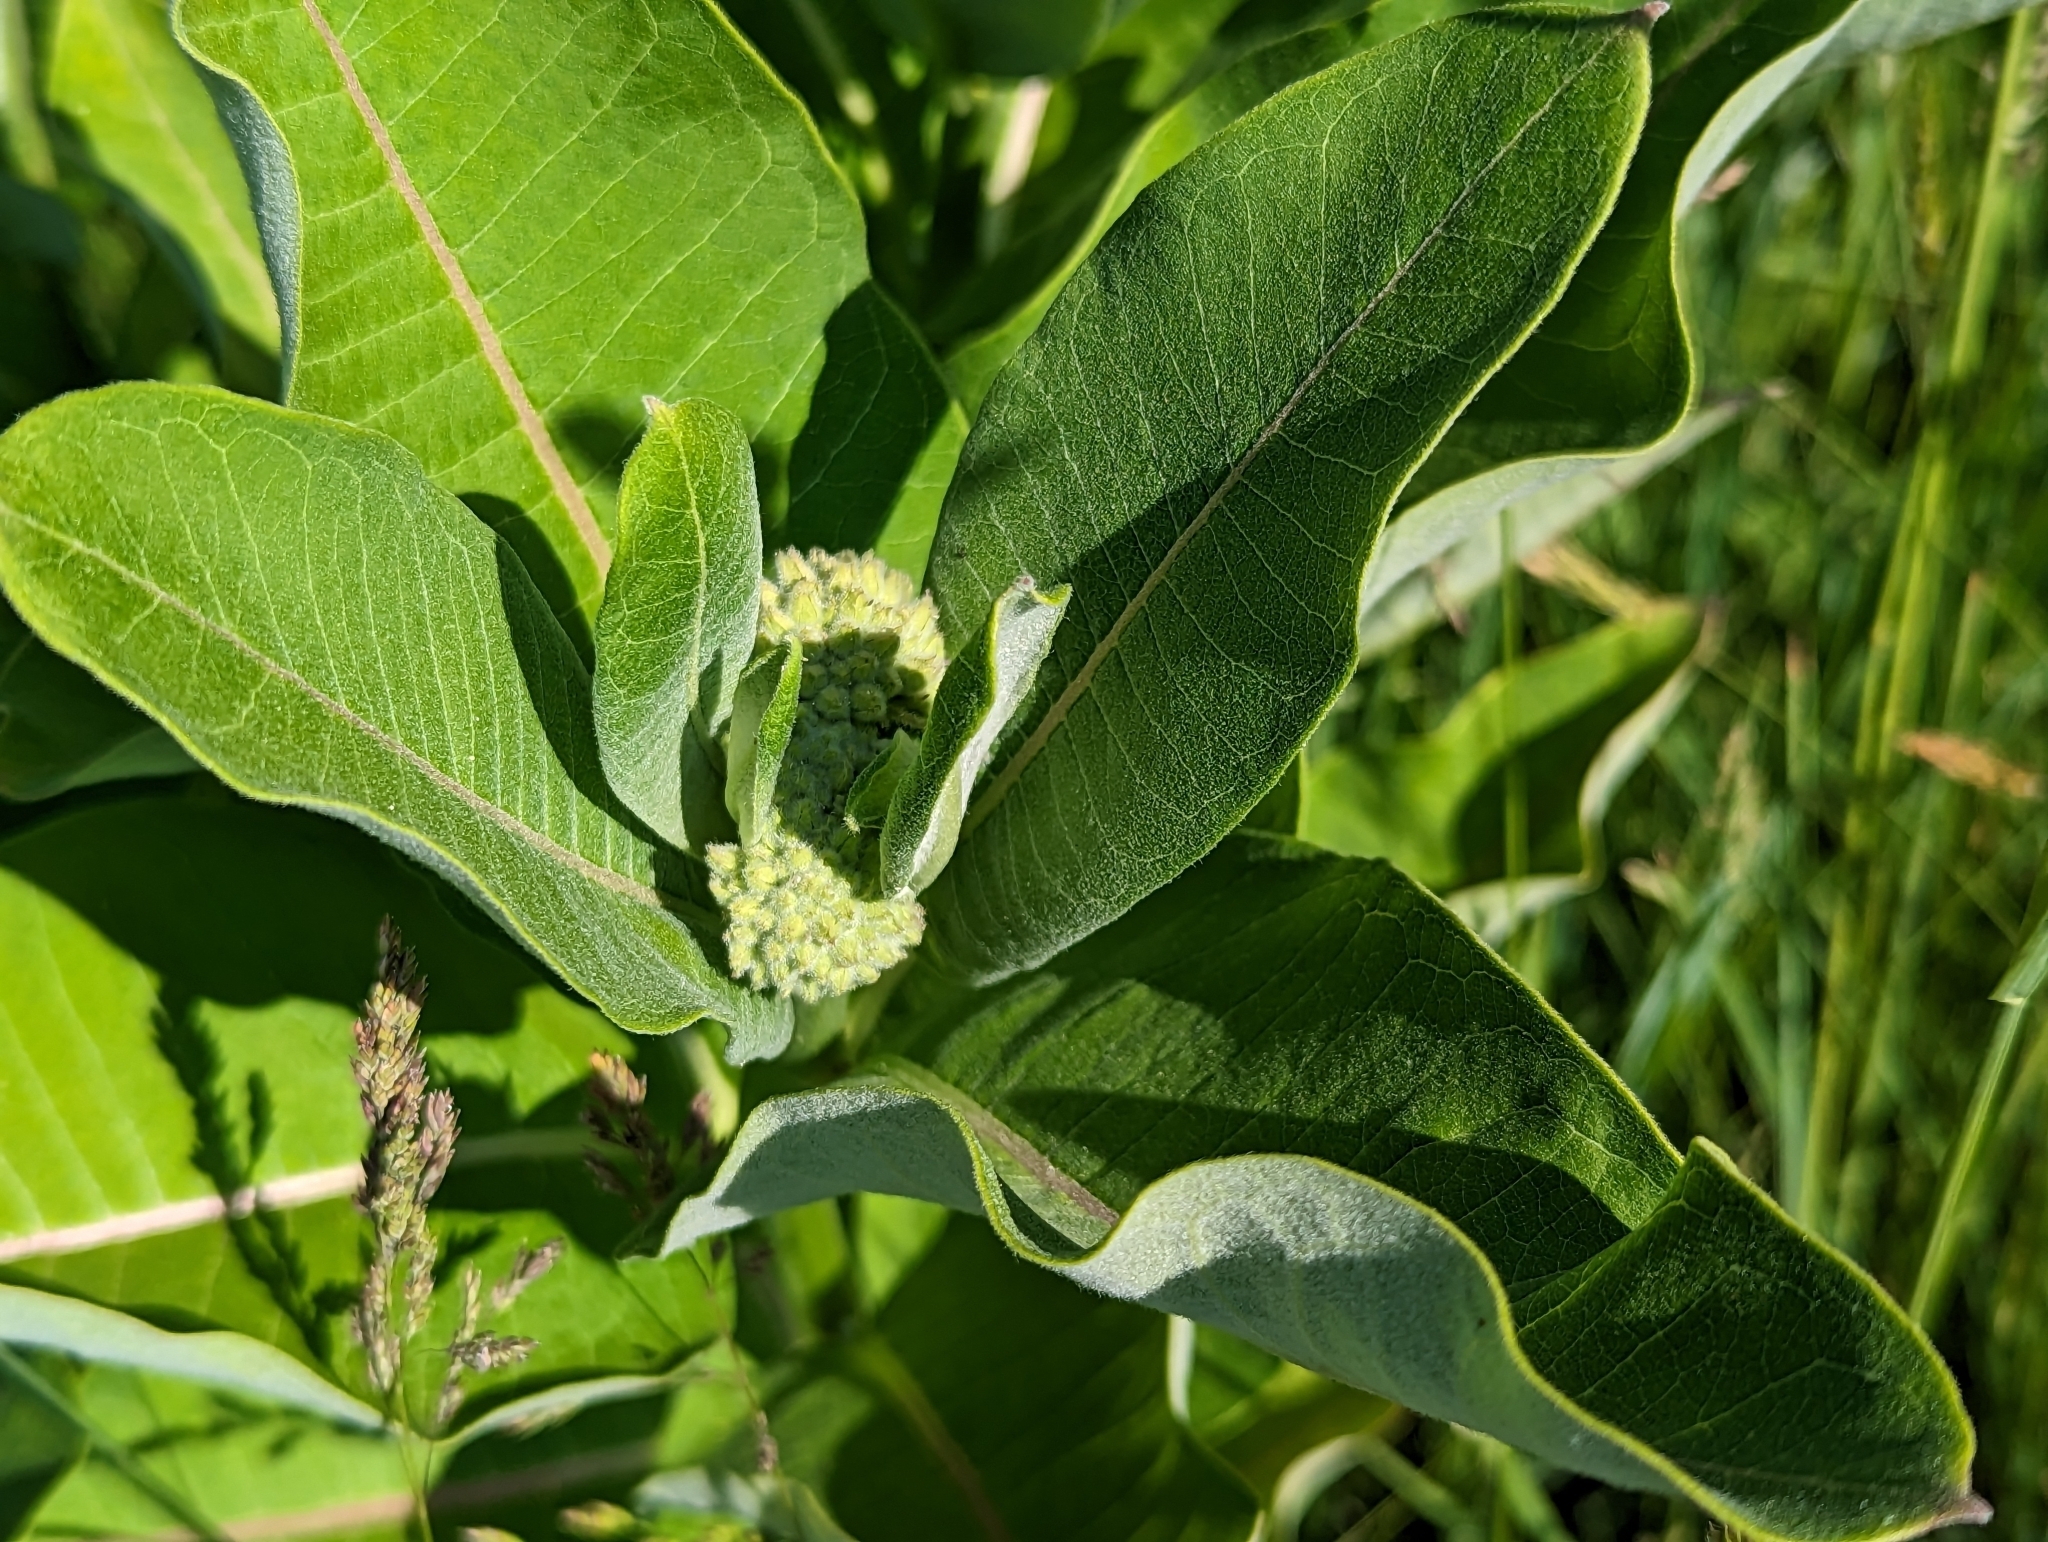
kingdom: Plantae
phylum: Tracheophyta
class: Magnoliopsida
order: Gentianales
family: Apocynaceae
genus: Asclepias
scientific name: Asclepias syriaca
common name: Common milkweed
